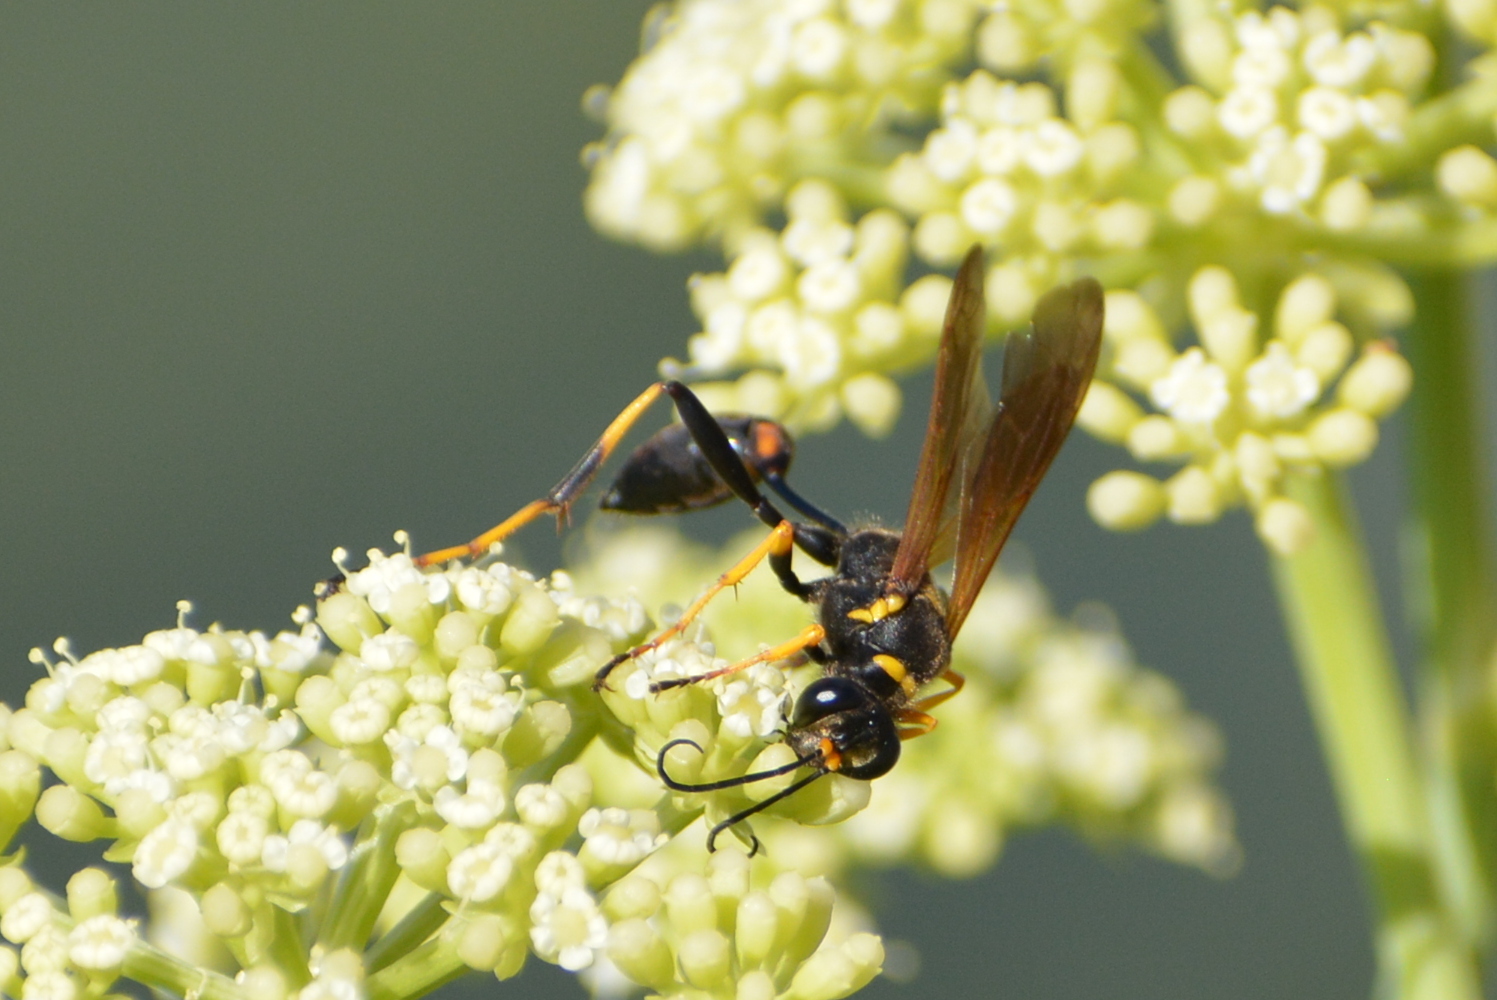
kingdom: Animalia
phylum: Arthropoda
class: Insecta
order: Hymenoptera
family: Sphecidae
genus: Sceliphron
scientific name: Sceliphron caementarium
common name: Mud dauber
